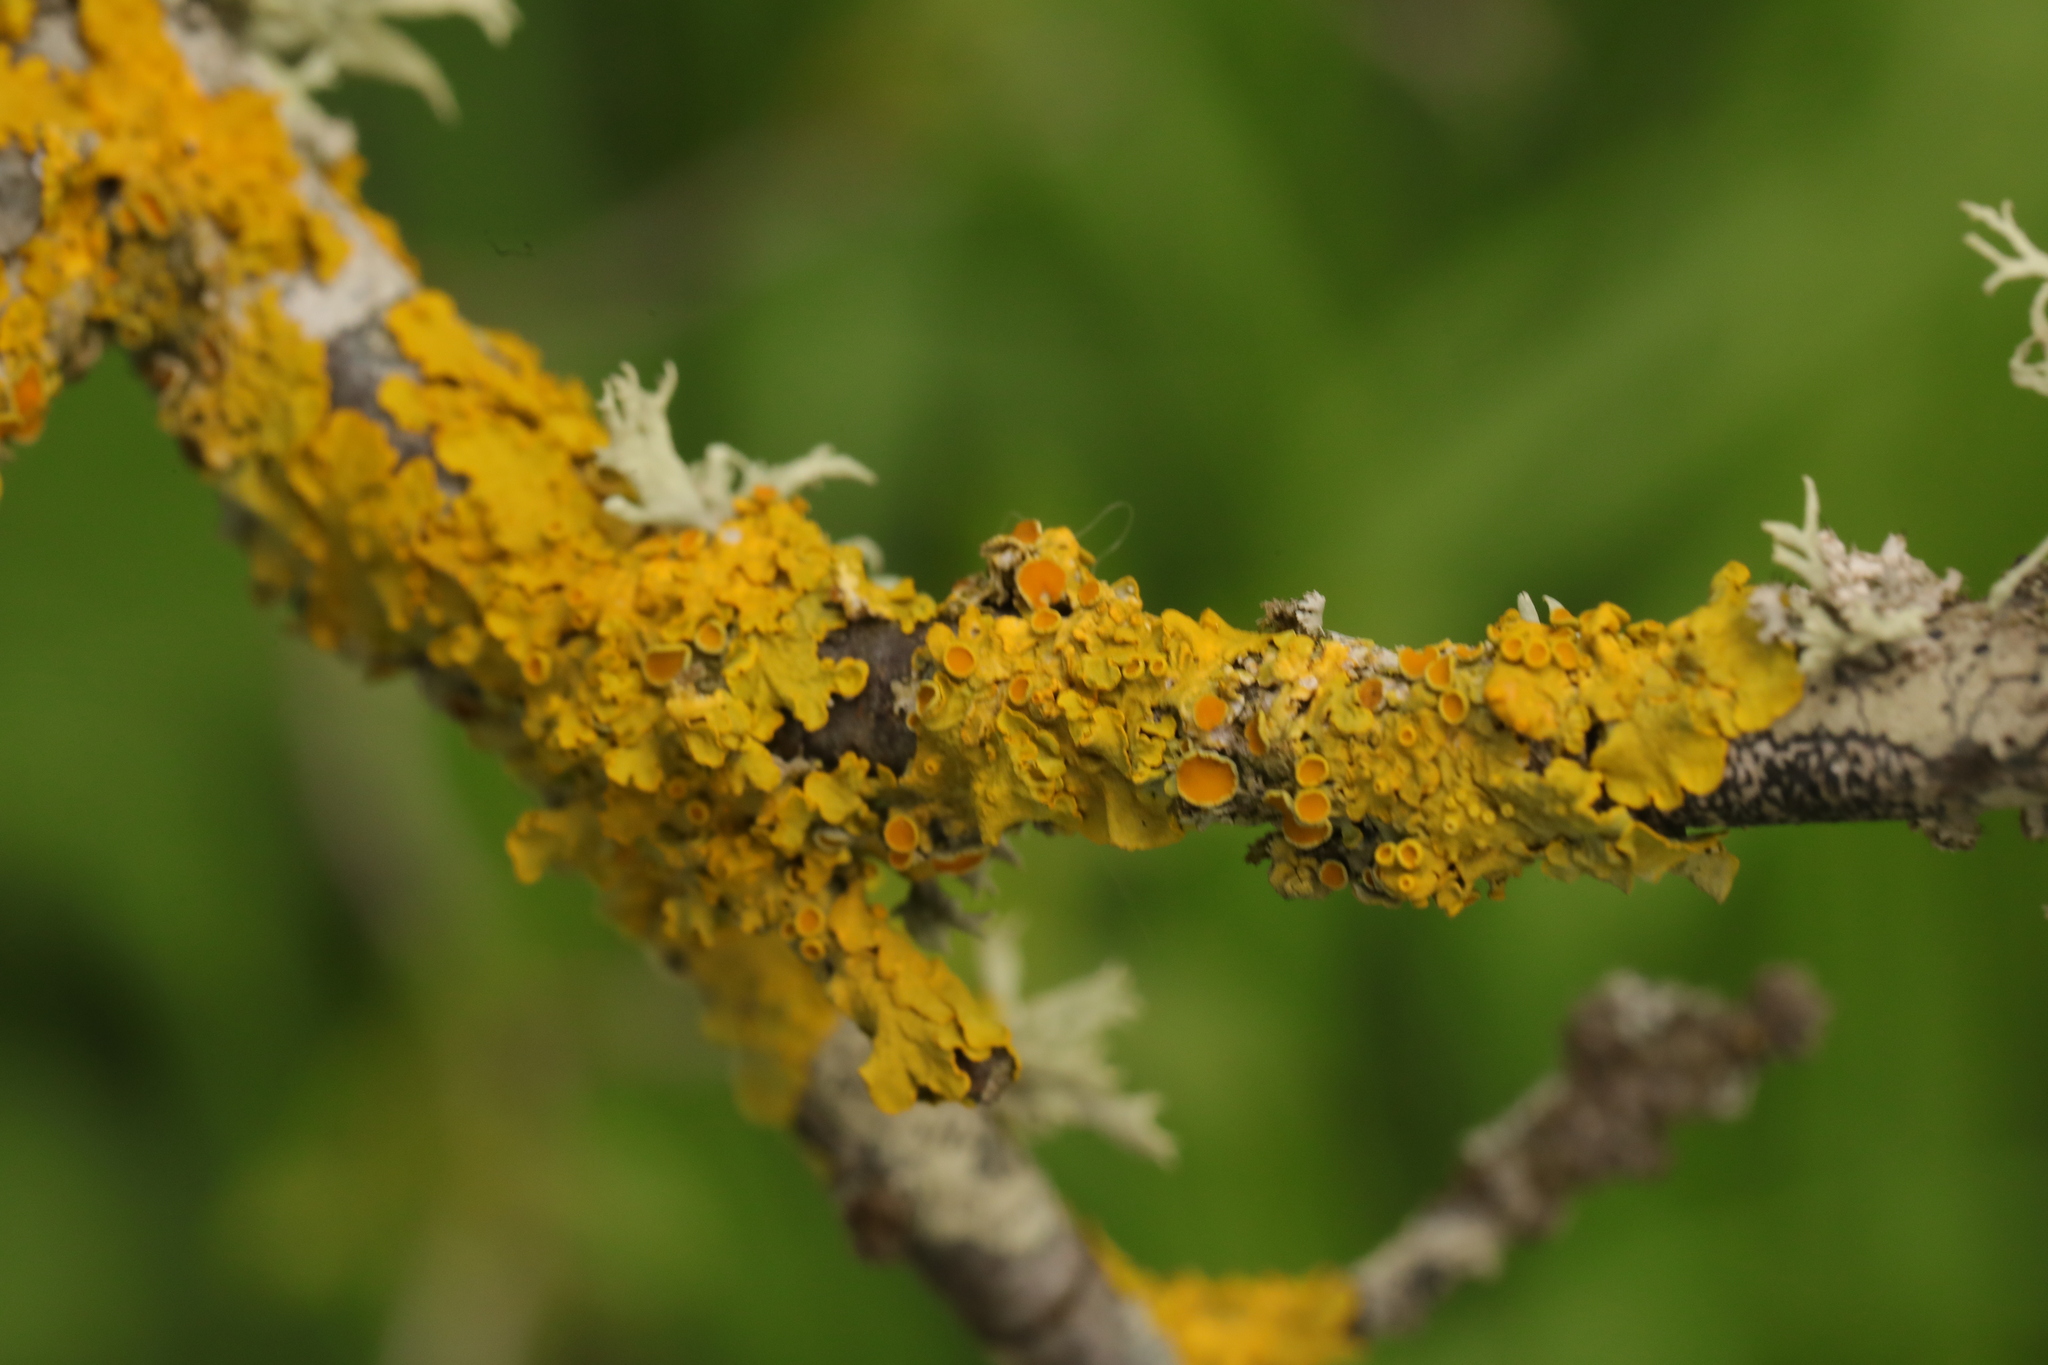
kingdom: Fungi
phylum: Ascomycota
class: Lecanoromycetes
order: Teloschistales
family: Teloschistaceae
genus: Xanthoria
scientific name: Xanthoria parietina
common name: Common orange lichen
